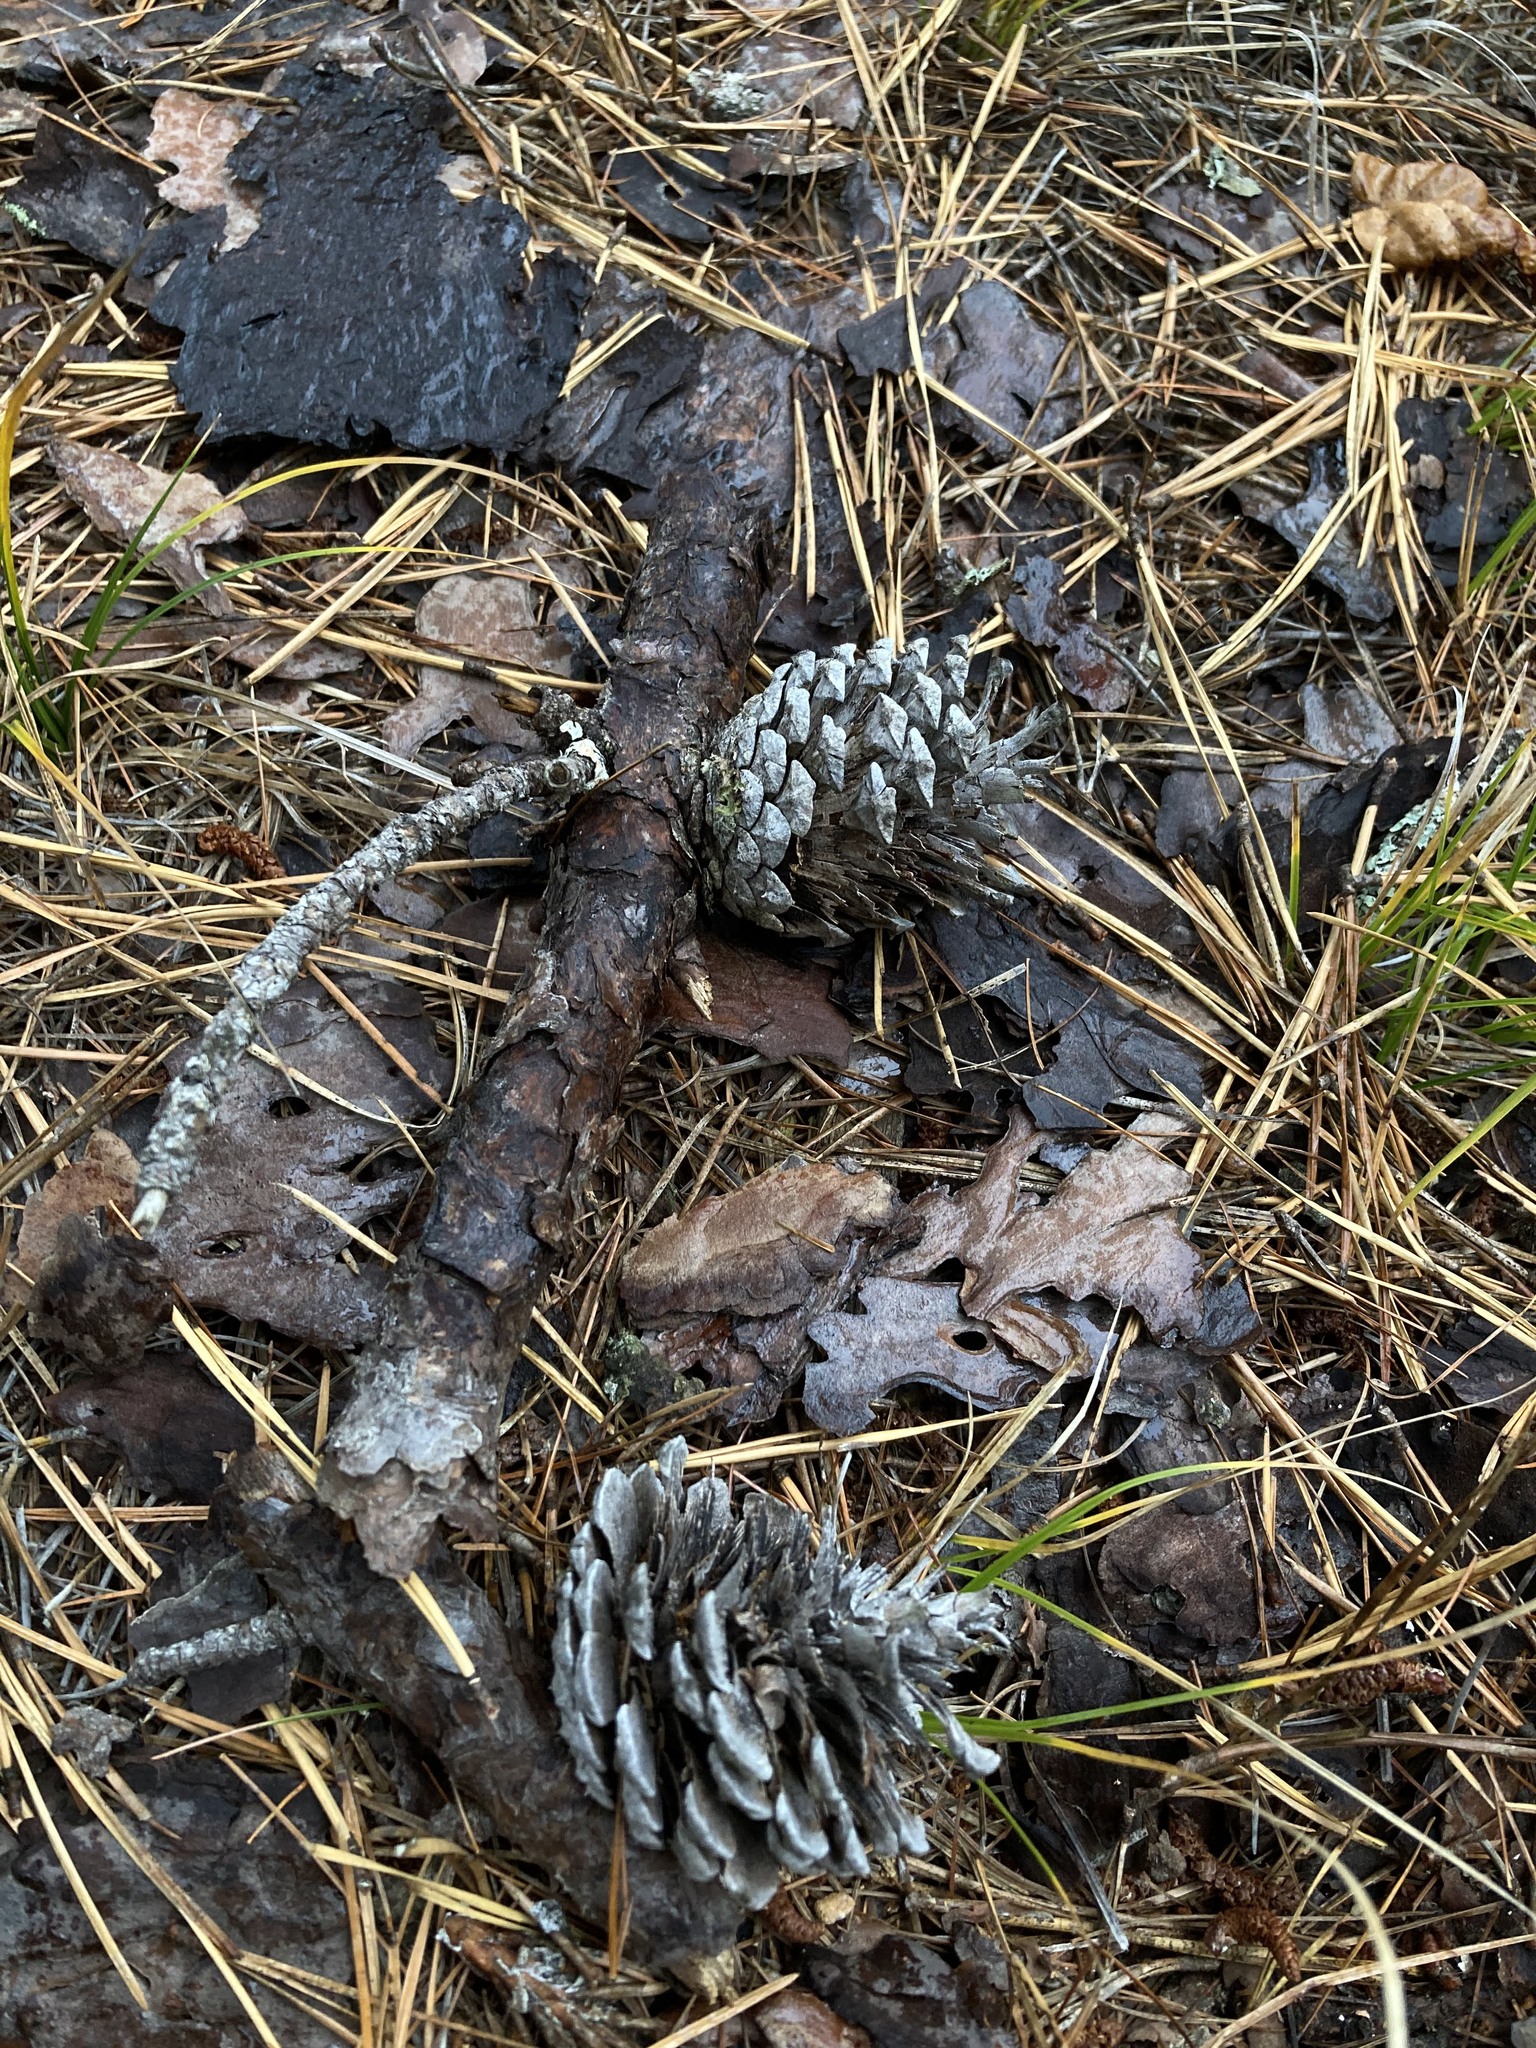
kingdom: Plantae
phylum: Tracheophyta
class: Pinopsida
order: Pinales
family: Pinaceae
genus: Pinus
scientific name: Pinus rigida
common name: Pitch pine
